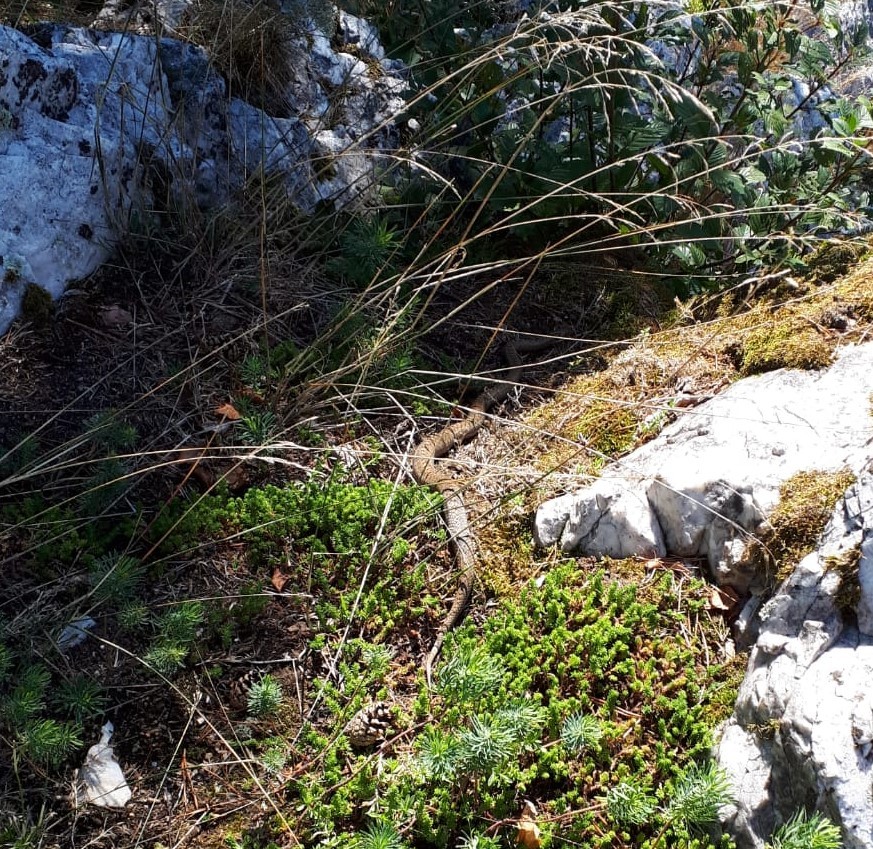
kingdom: Animalia
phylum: Chordata
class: Squamata
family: Colubridae
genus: Coronella
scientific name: Coronella austriaca
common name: Smooth snake
